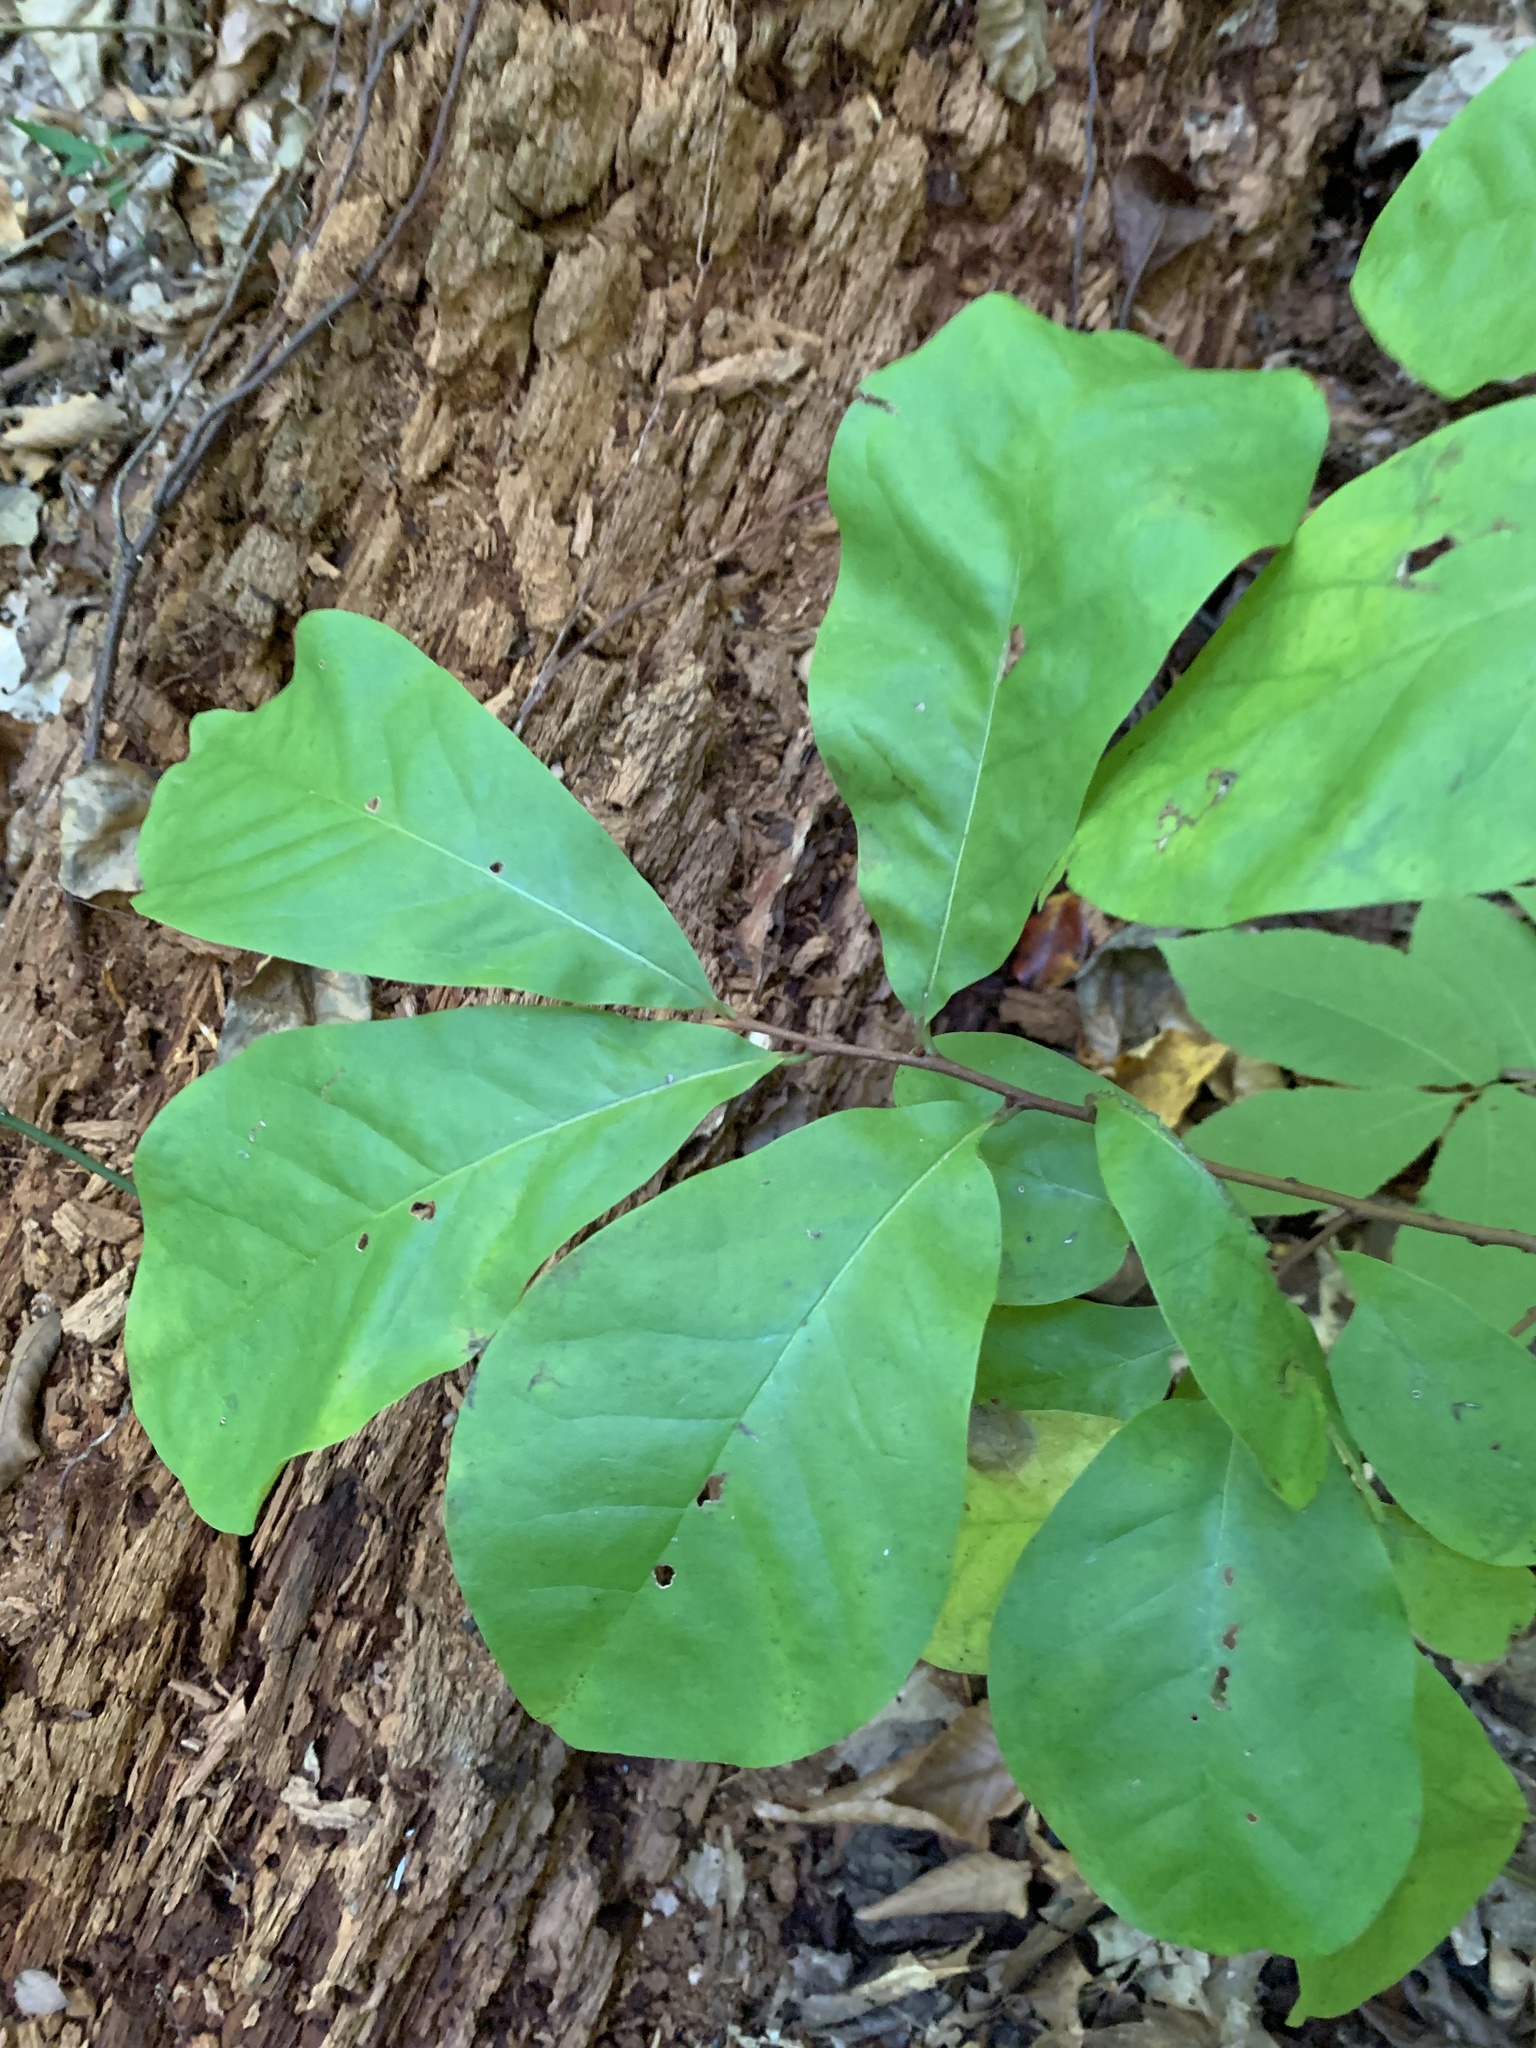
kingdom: Plantae
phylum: Tracheophyta
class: Magnoliopsida
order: Magnoliales
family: Annonaceae
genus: Asimina
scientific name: Asimina parviflora
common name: Dwarf pawpaw
